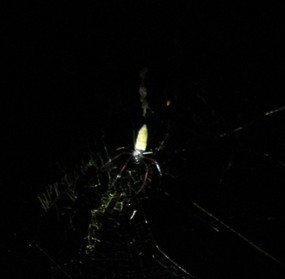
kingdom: Animalia
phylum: Arthropoda
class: Arachnida
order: Araneae
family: Araneidae
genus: Trichonephila
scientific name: Trichonephila inaurata
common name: Red-legged golden orb weaver
